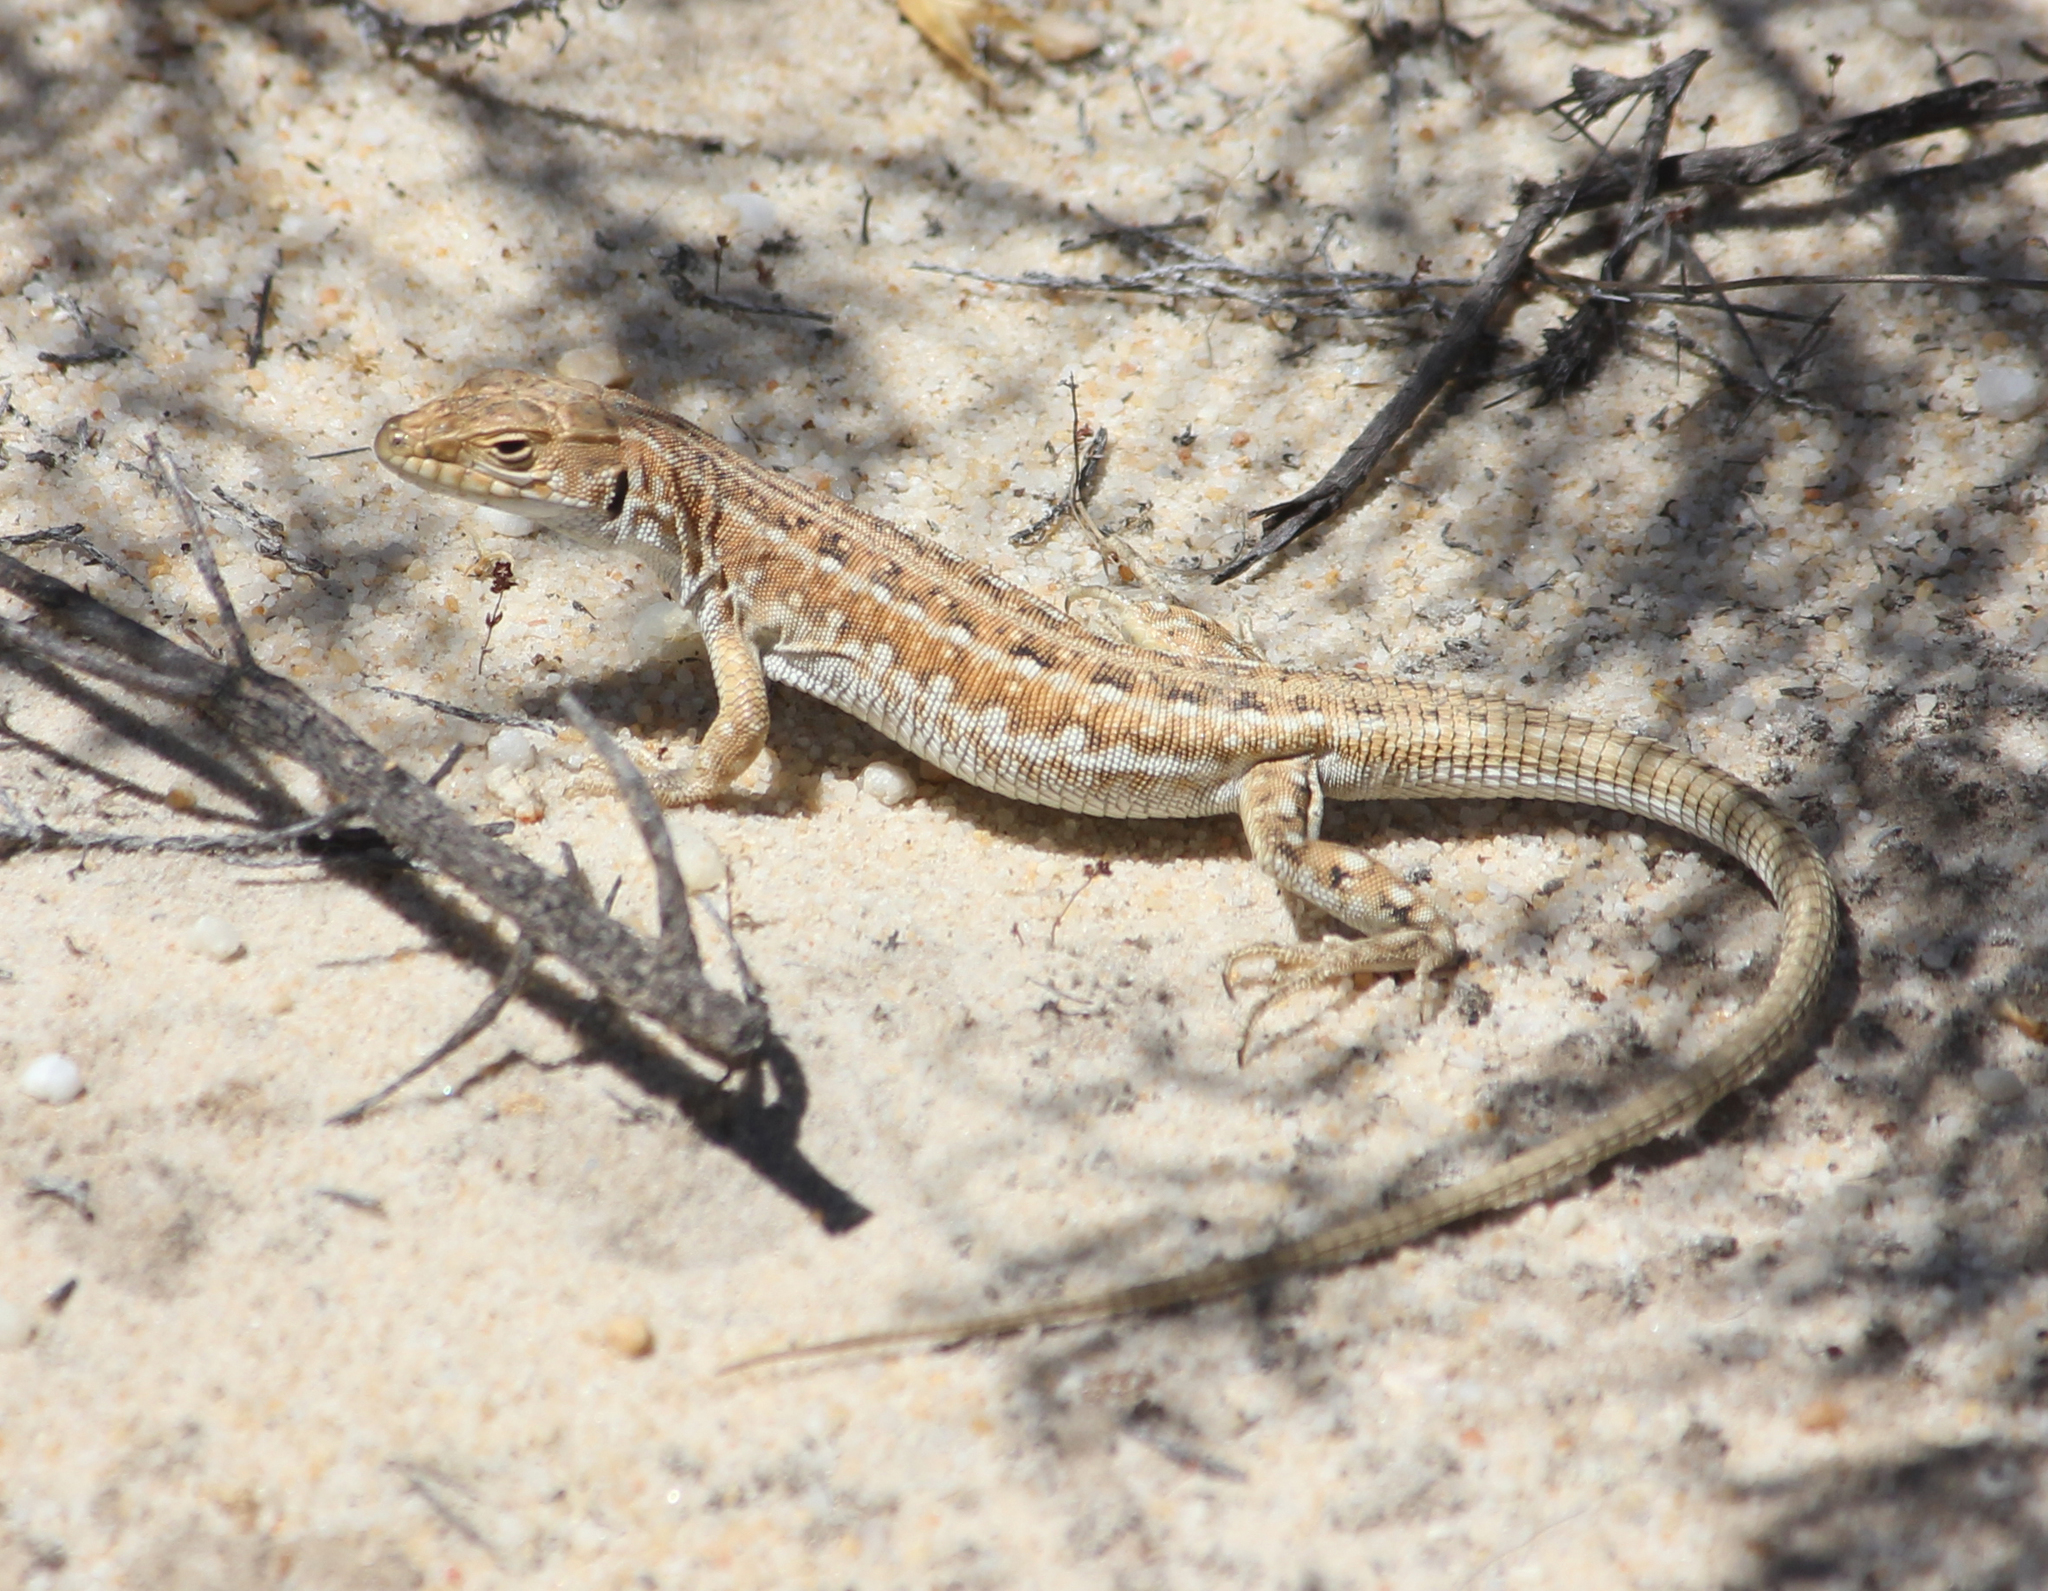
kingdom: Animalia
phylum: Chordata
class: Squamata
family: Lacertidae
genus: Meroles
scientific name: Meroles knoxii
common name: Knox's desert lizard
